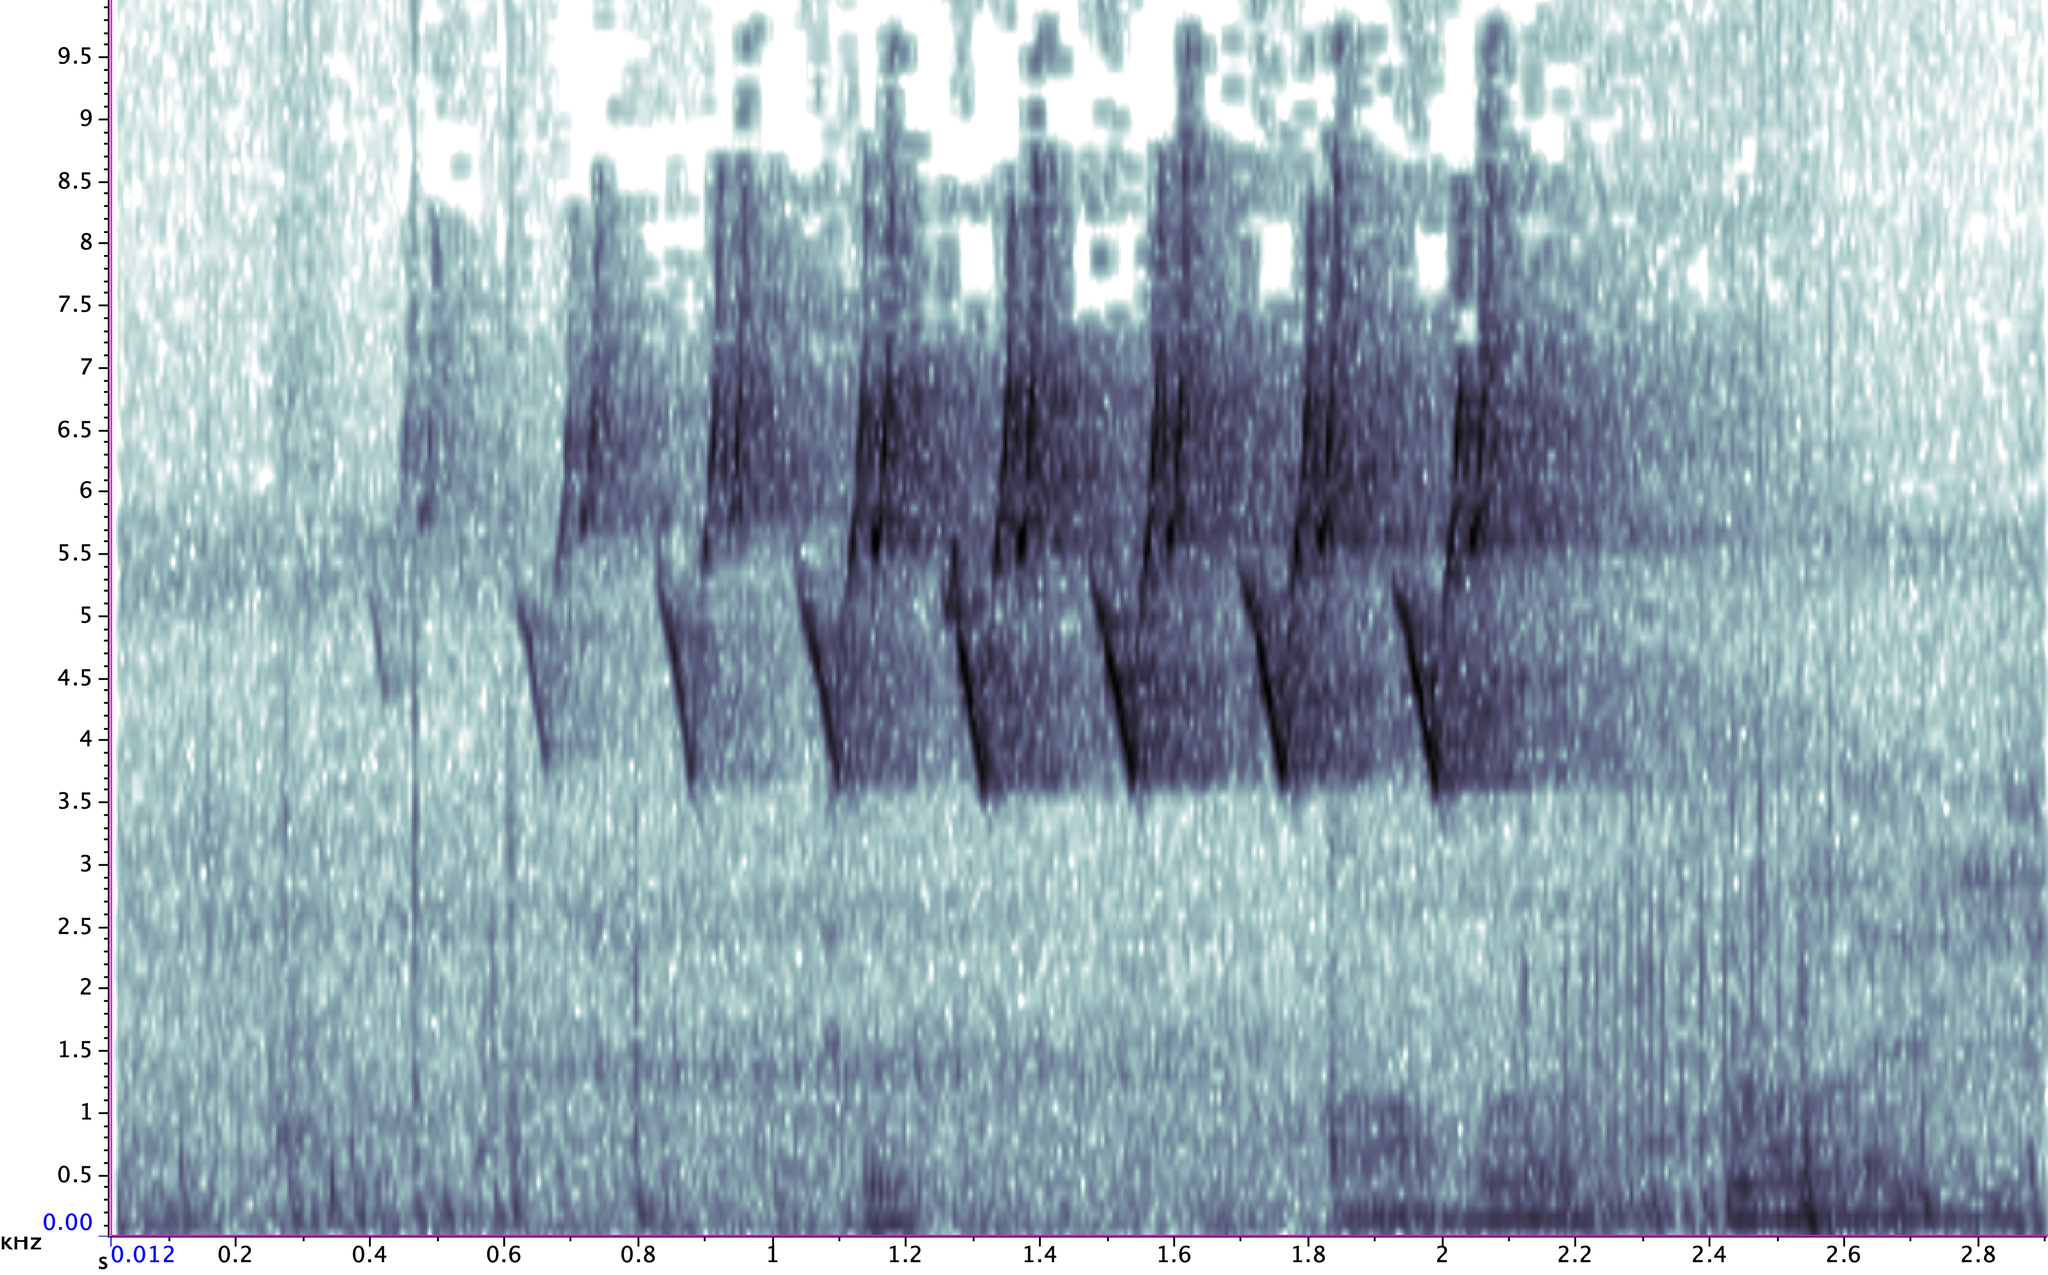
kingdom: Animalia
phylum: Chordata
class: Aves
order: Passeriformes
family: Parulidae
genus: Protonotaria
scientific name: Protonotaria citrea
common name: Prothonotary warbler
